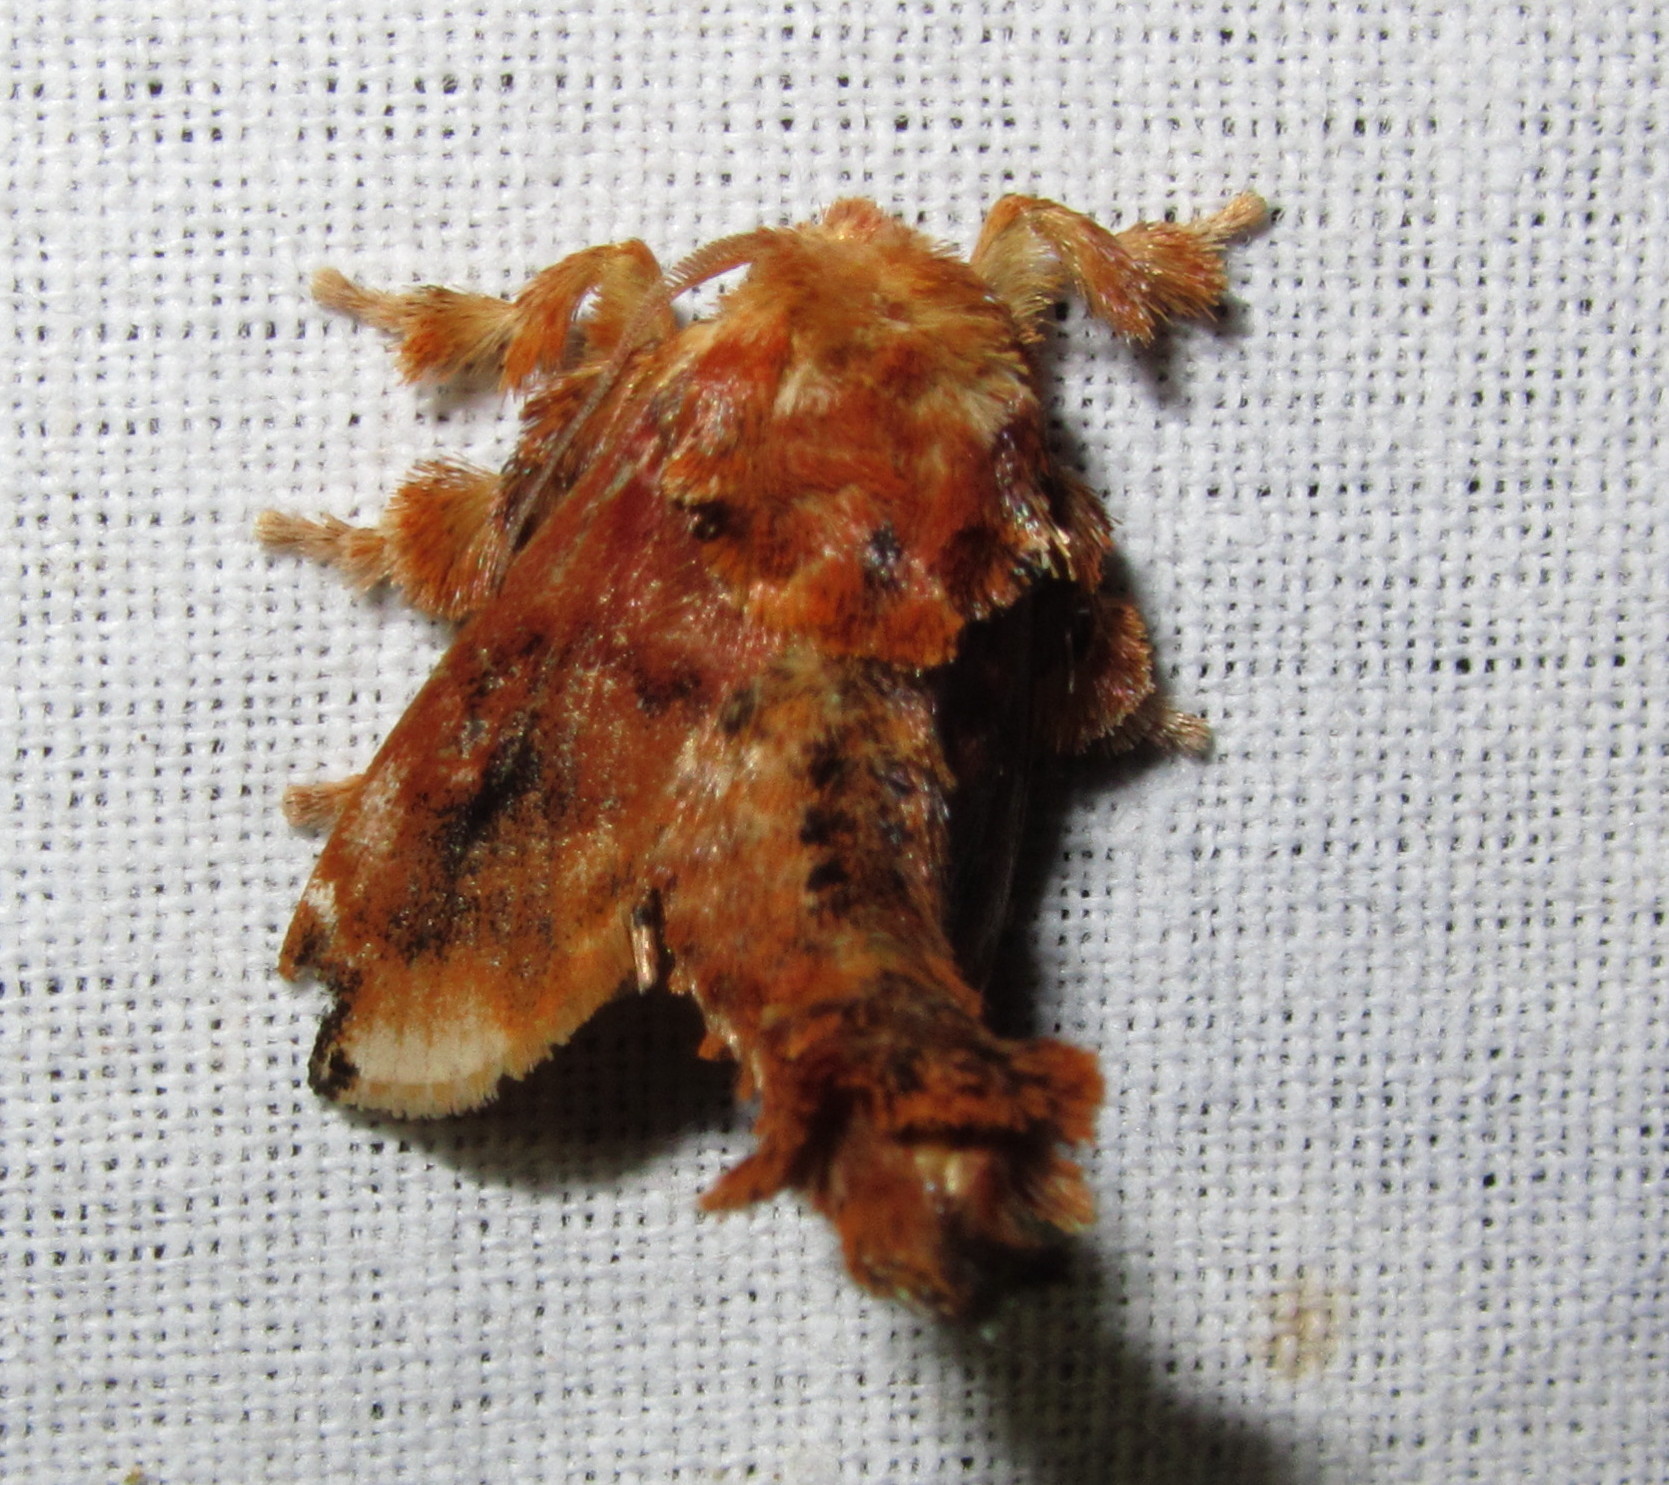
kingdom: Animalia
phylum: Arthropoda
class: Insecta
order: Lepidoptera
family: Limacodidae
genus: Cheromettia
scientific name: Cheromettia apicata
